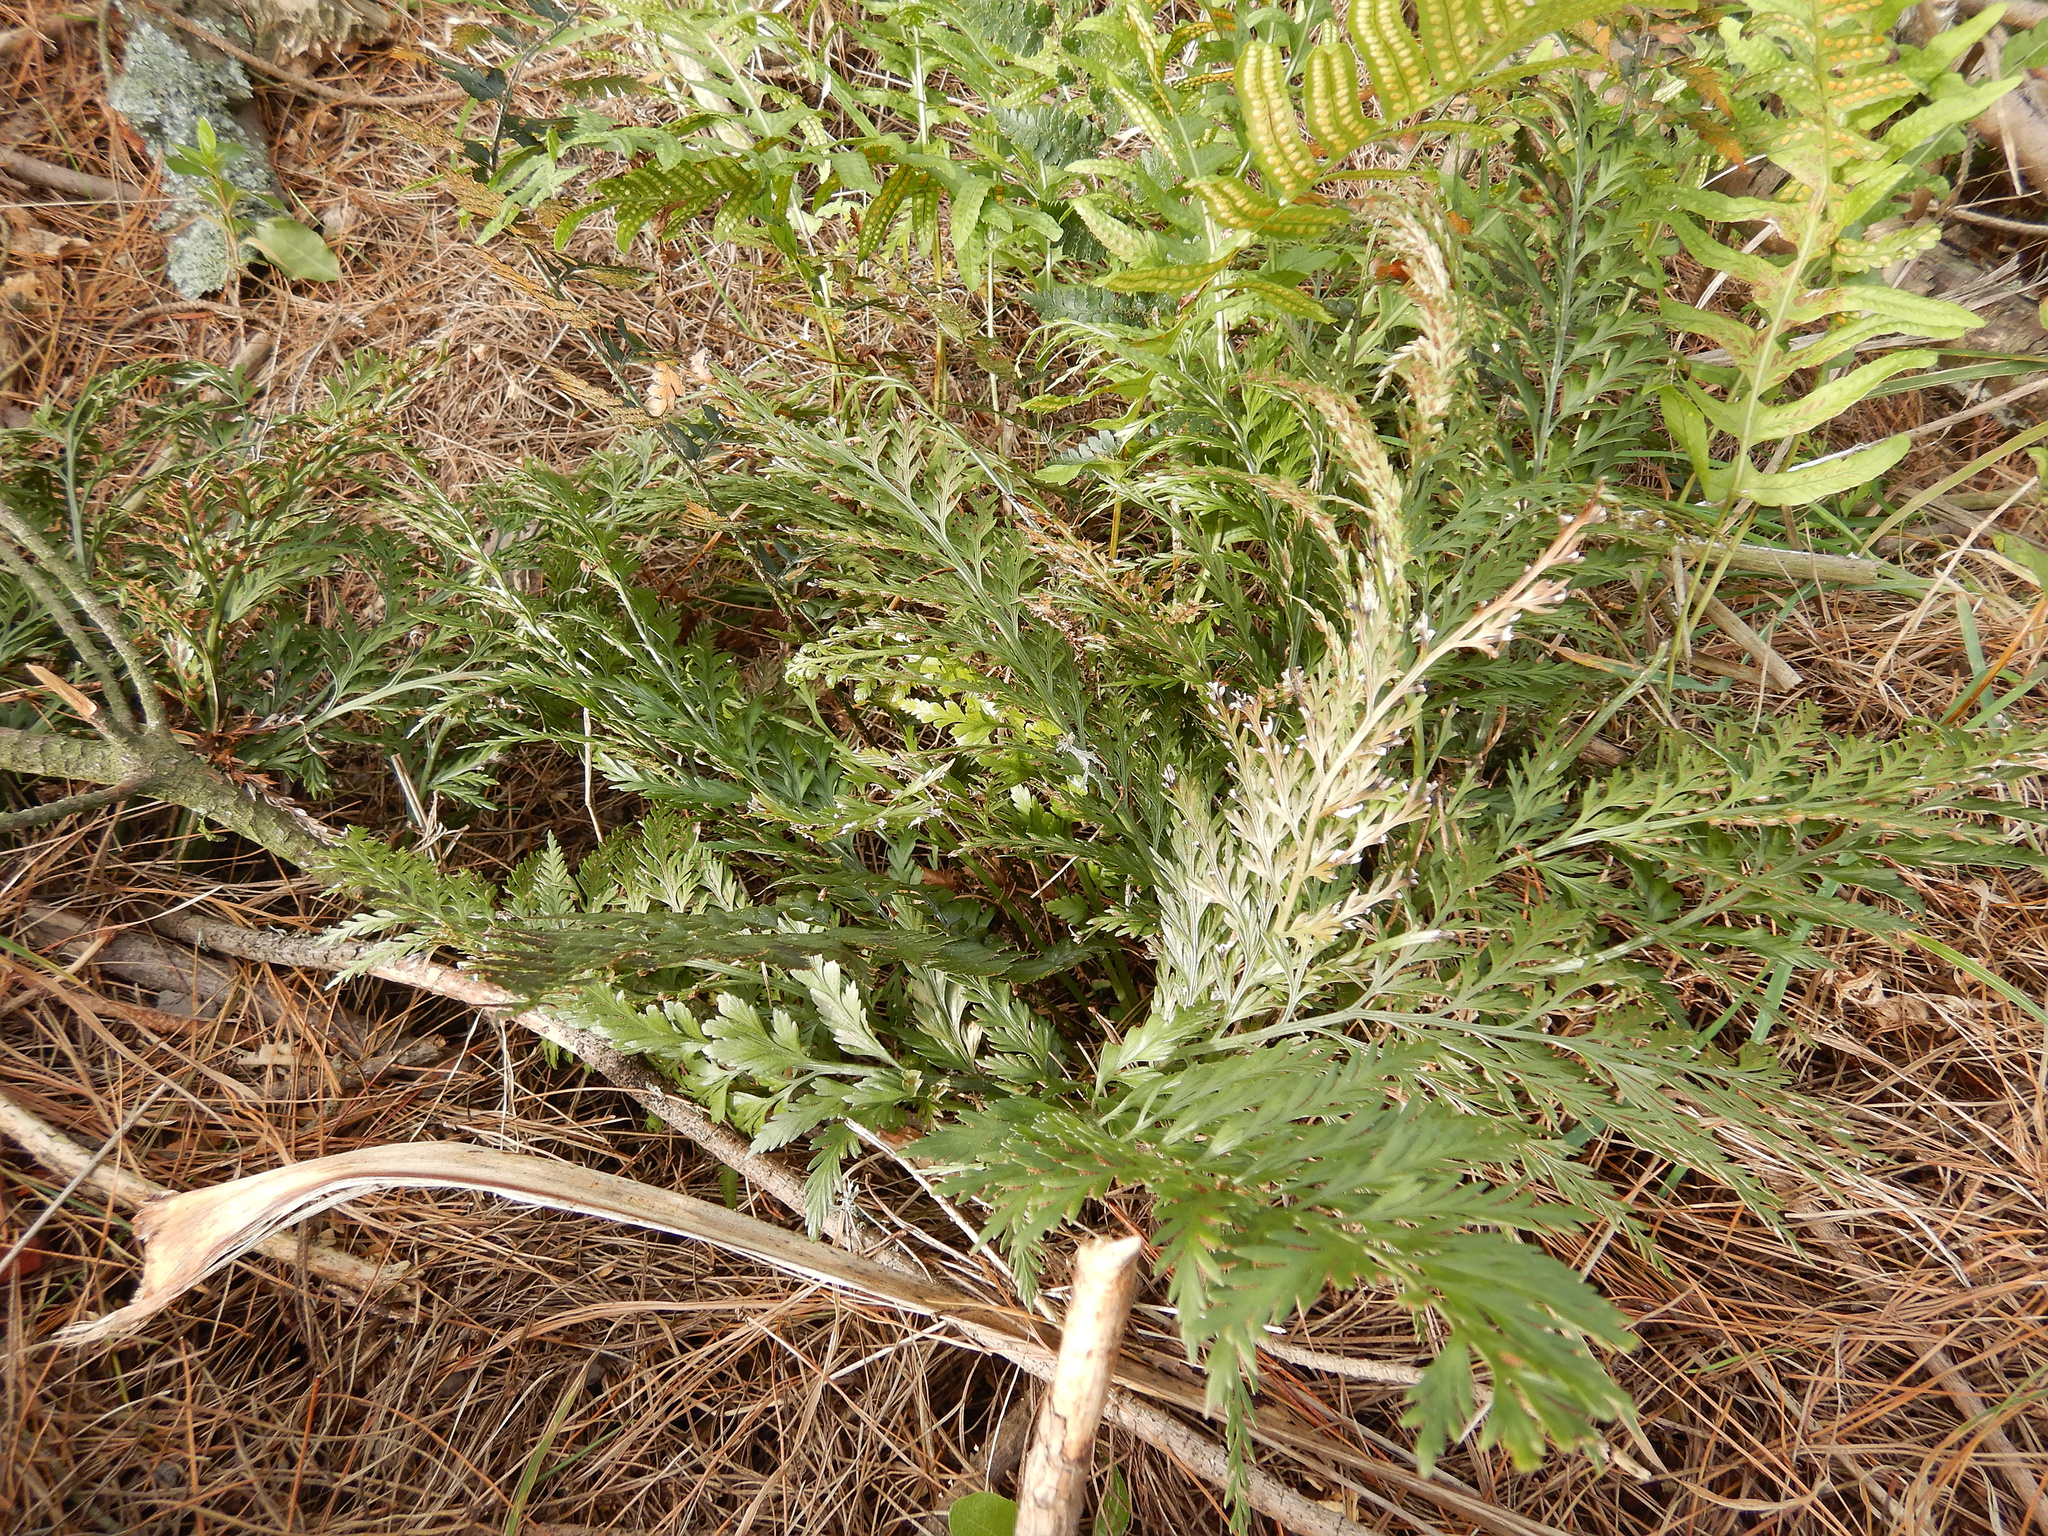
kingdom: Plantae
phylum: Tracheophyta
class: Polypodiopsida
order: Polypodiales
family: Aspleniaceae
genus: Asplenium
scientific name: Asplenium appendiculatum
